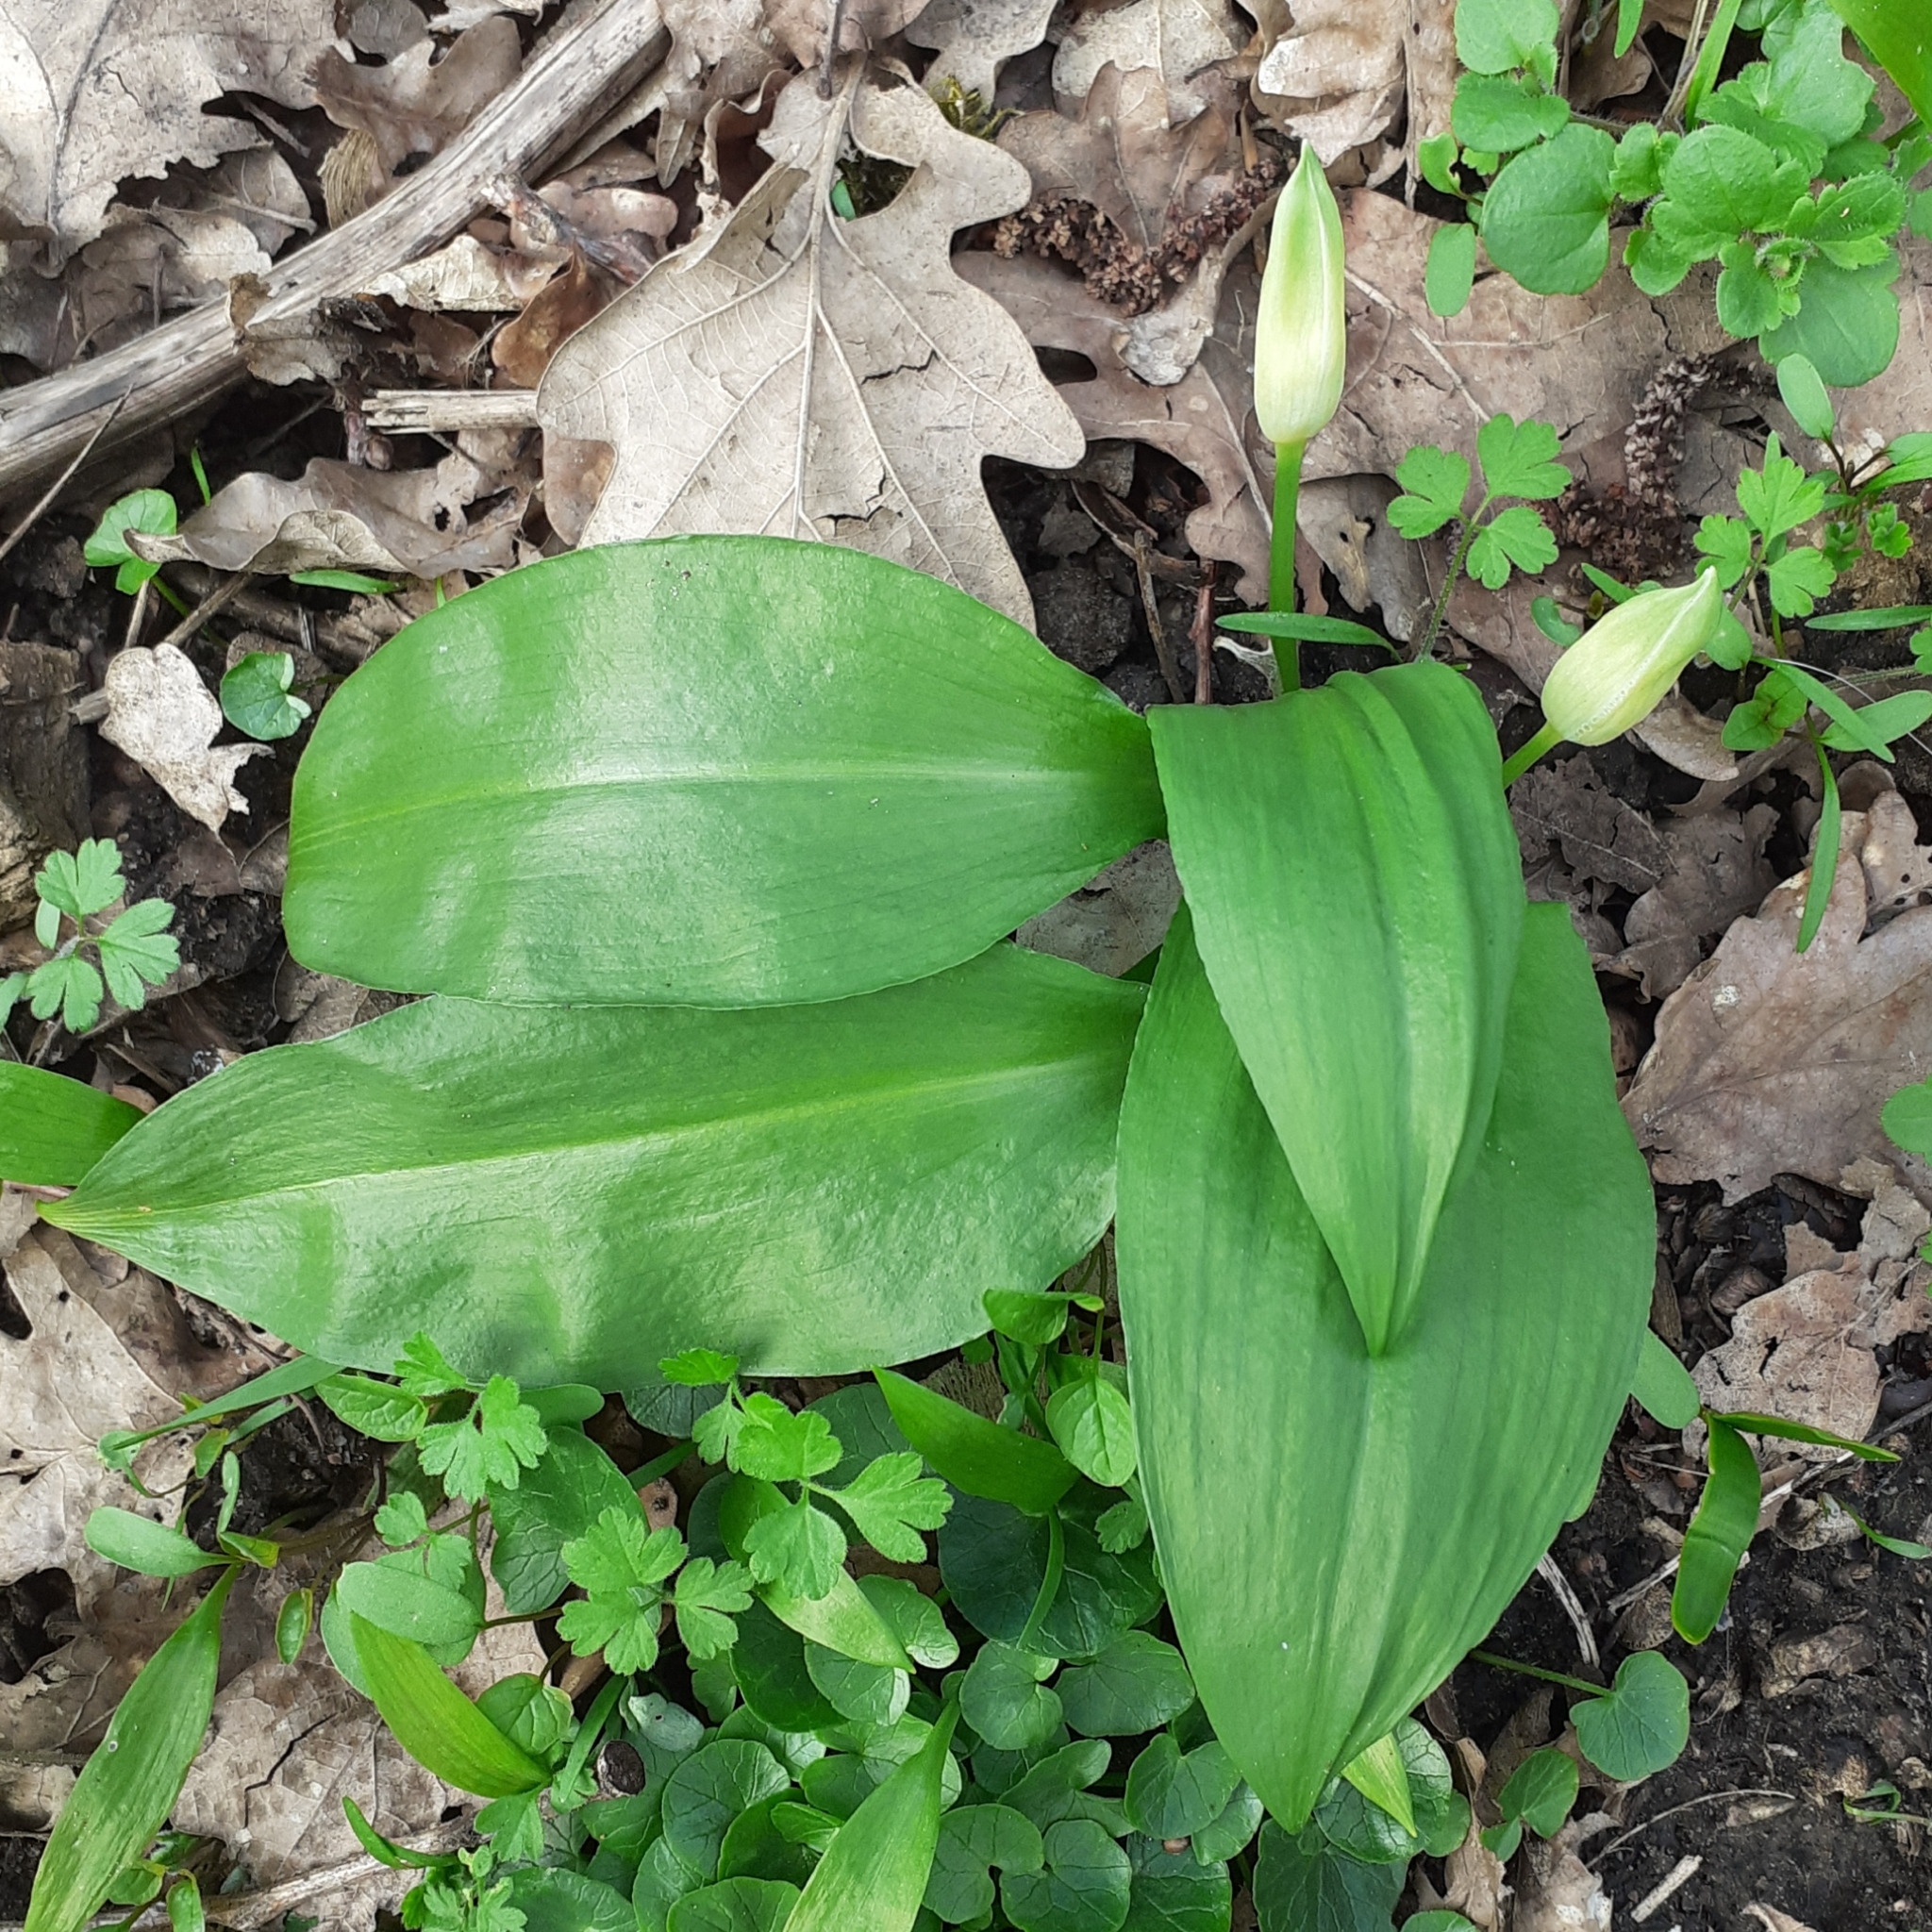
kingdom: Plantae
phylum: Tracheophyta
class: Liliopsida
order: Asparagales
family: Amaryllidaceae
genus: Allium
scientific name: Allium ursinum
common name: Ramsons
